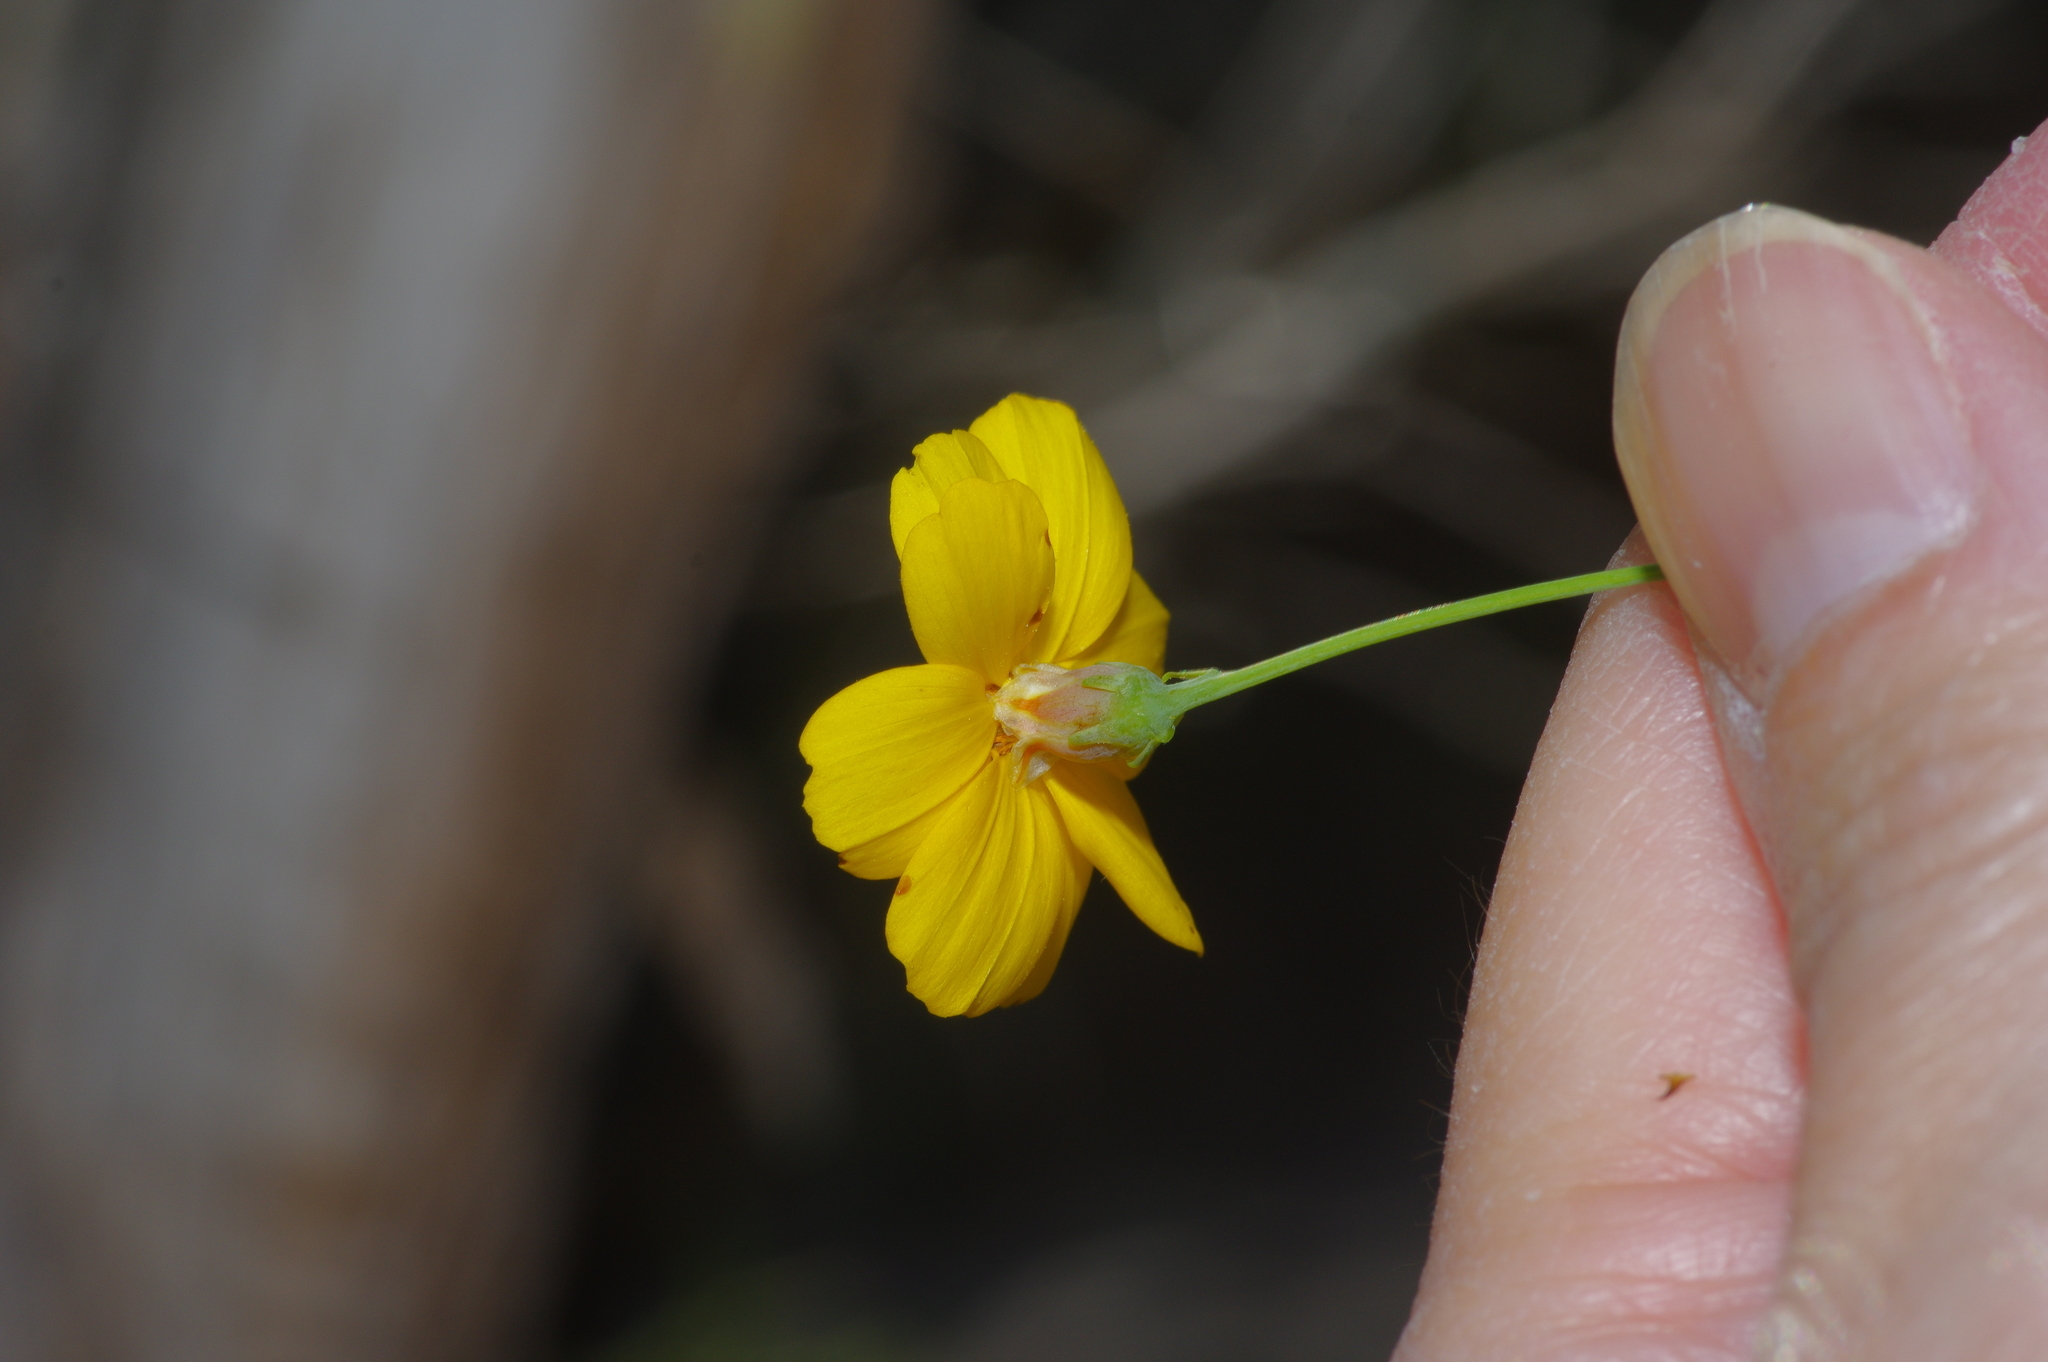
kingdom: Plantae
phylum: Tracheophyta
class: Magnoliopsida
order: Asterales
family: Asteraceae
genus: Thelesperma
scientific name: Thelesperma simplicifolium
